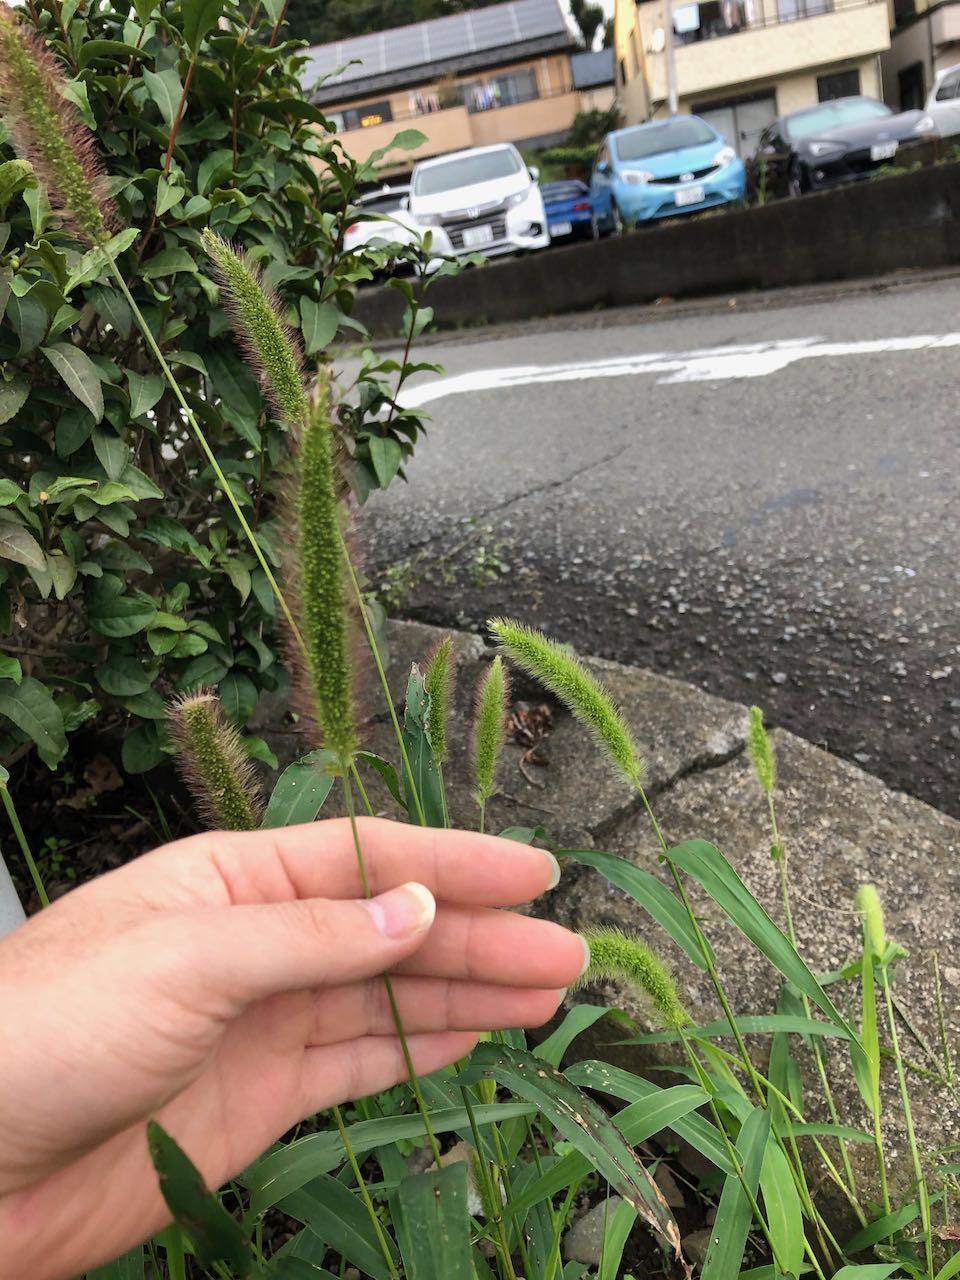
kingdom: Plantae
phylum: Tracheophyta
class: Liliopsida
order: Poales
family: Poaceae
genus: Setaria
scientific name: Setaria viridis
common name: Green bristlegrass
